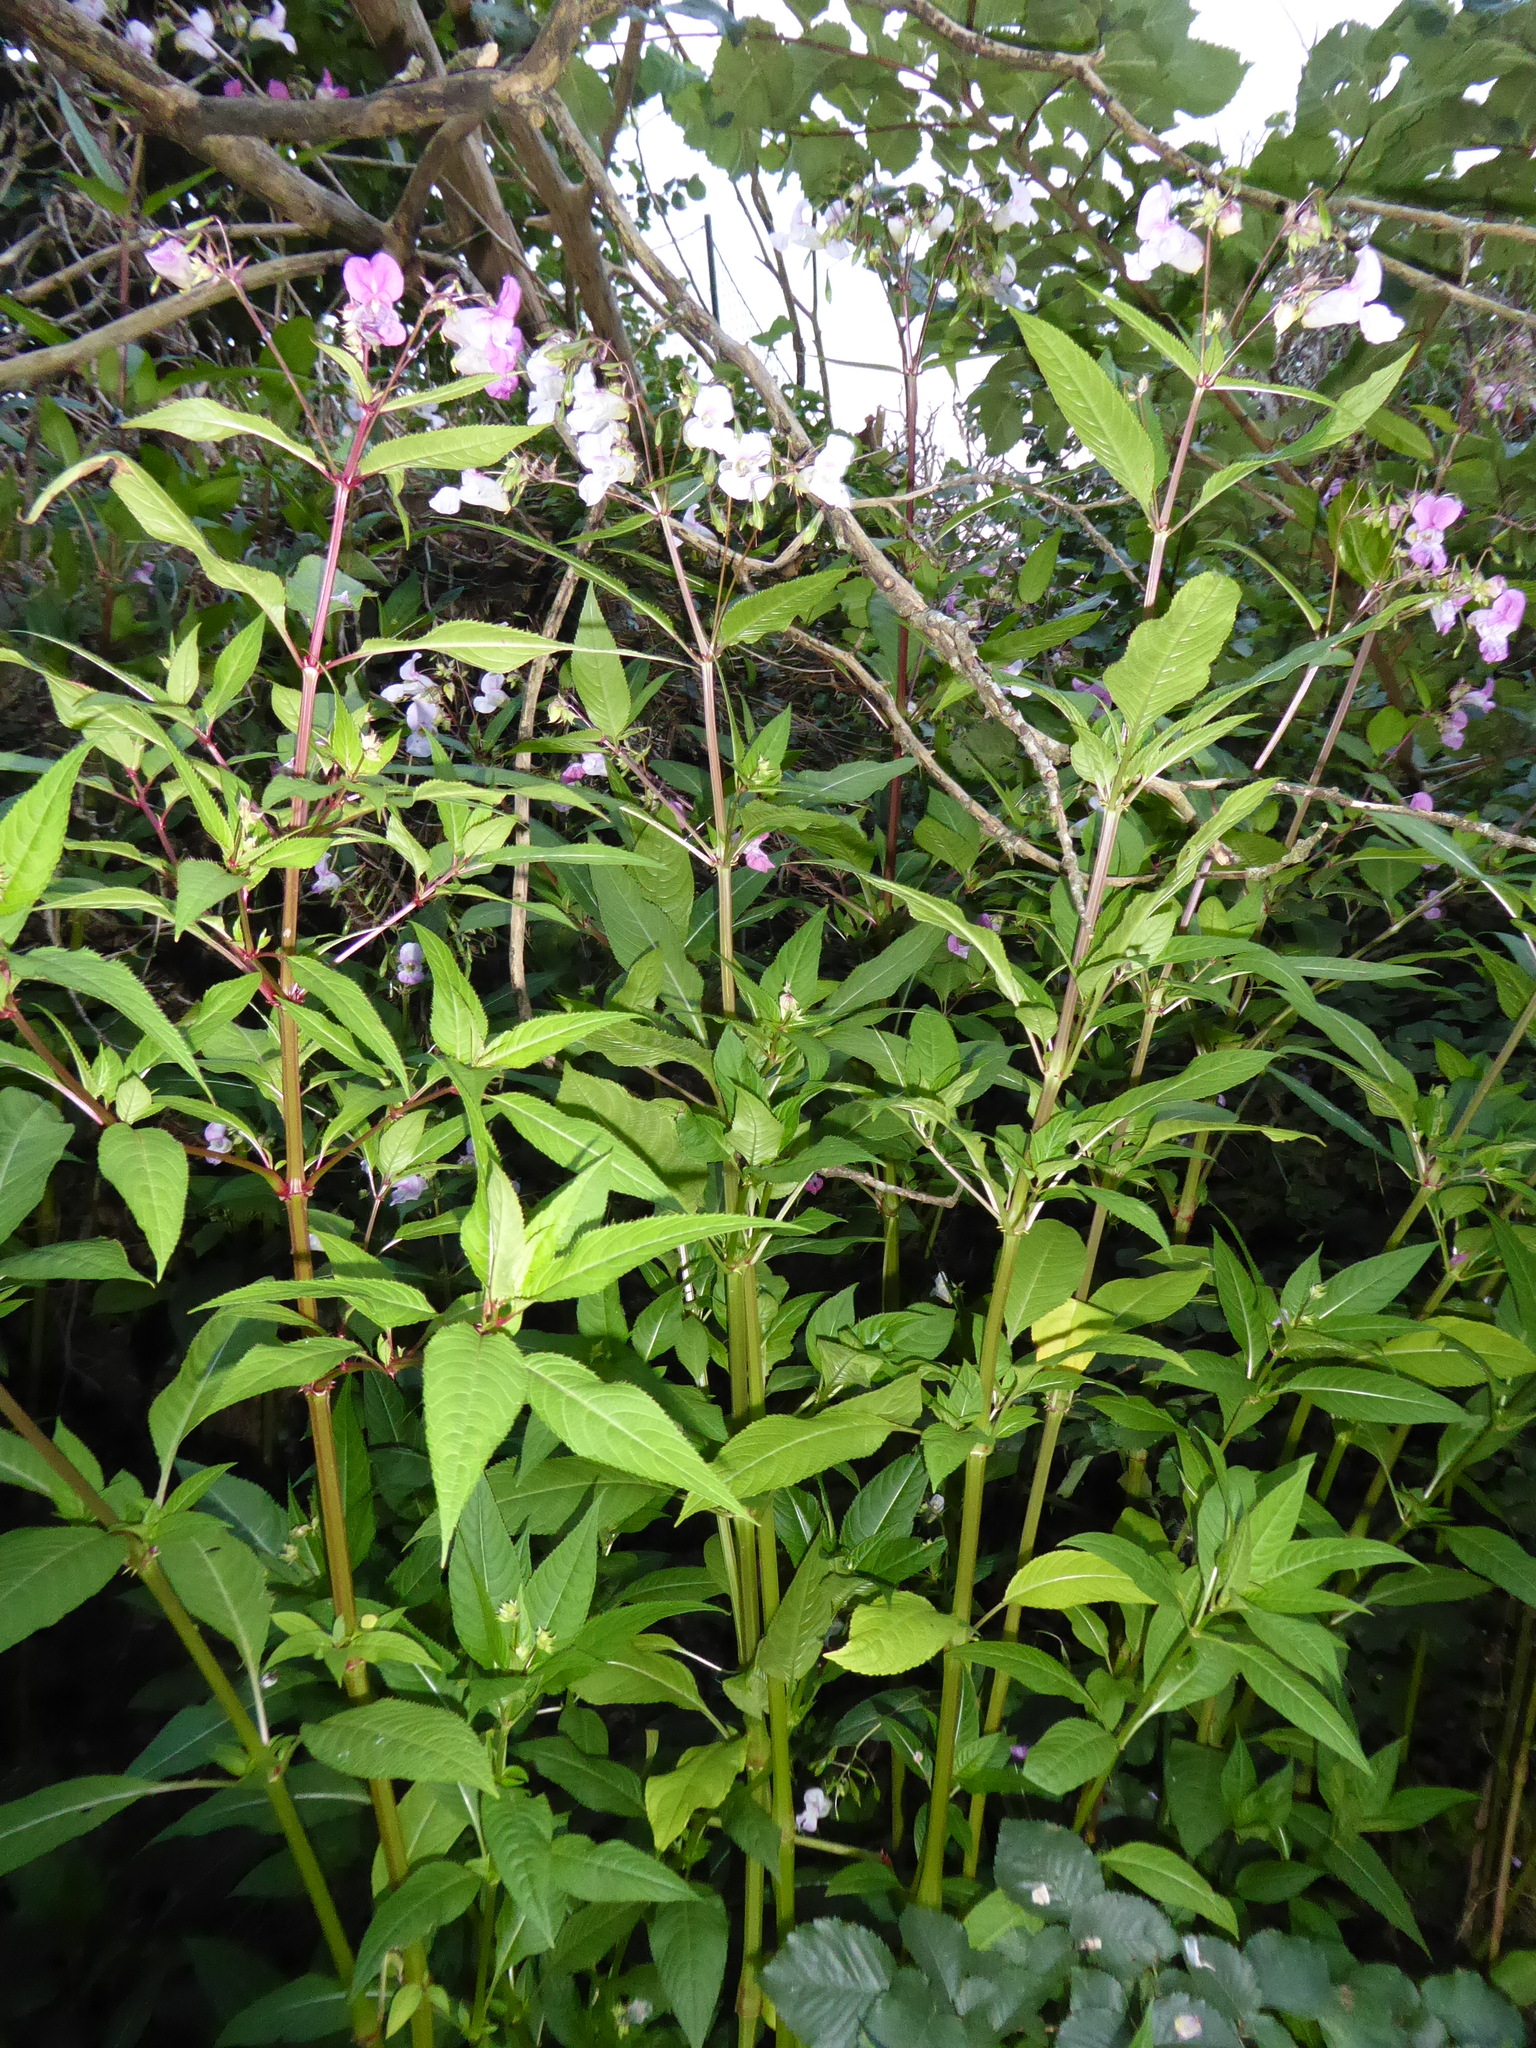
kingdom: Plantae
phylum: Tracheophyta
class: Magnoliopsida
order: Ericales
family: Balsaminaceae
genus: Impatiens
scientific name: Impatiens glandulifera
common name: Himalayan balsam
